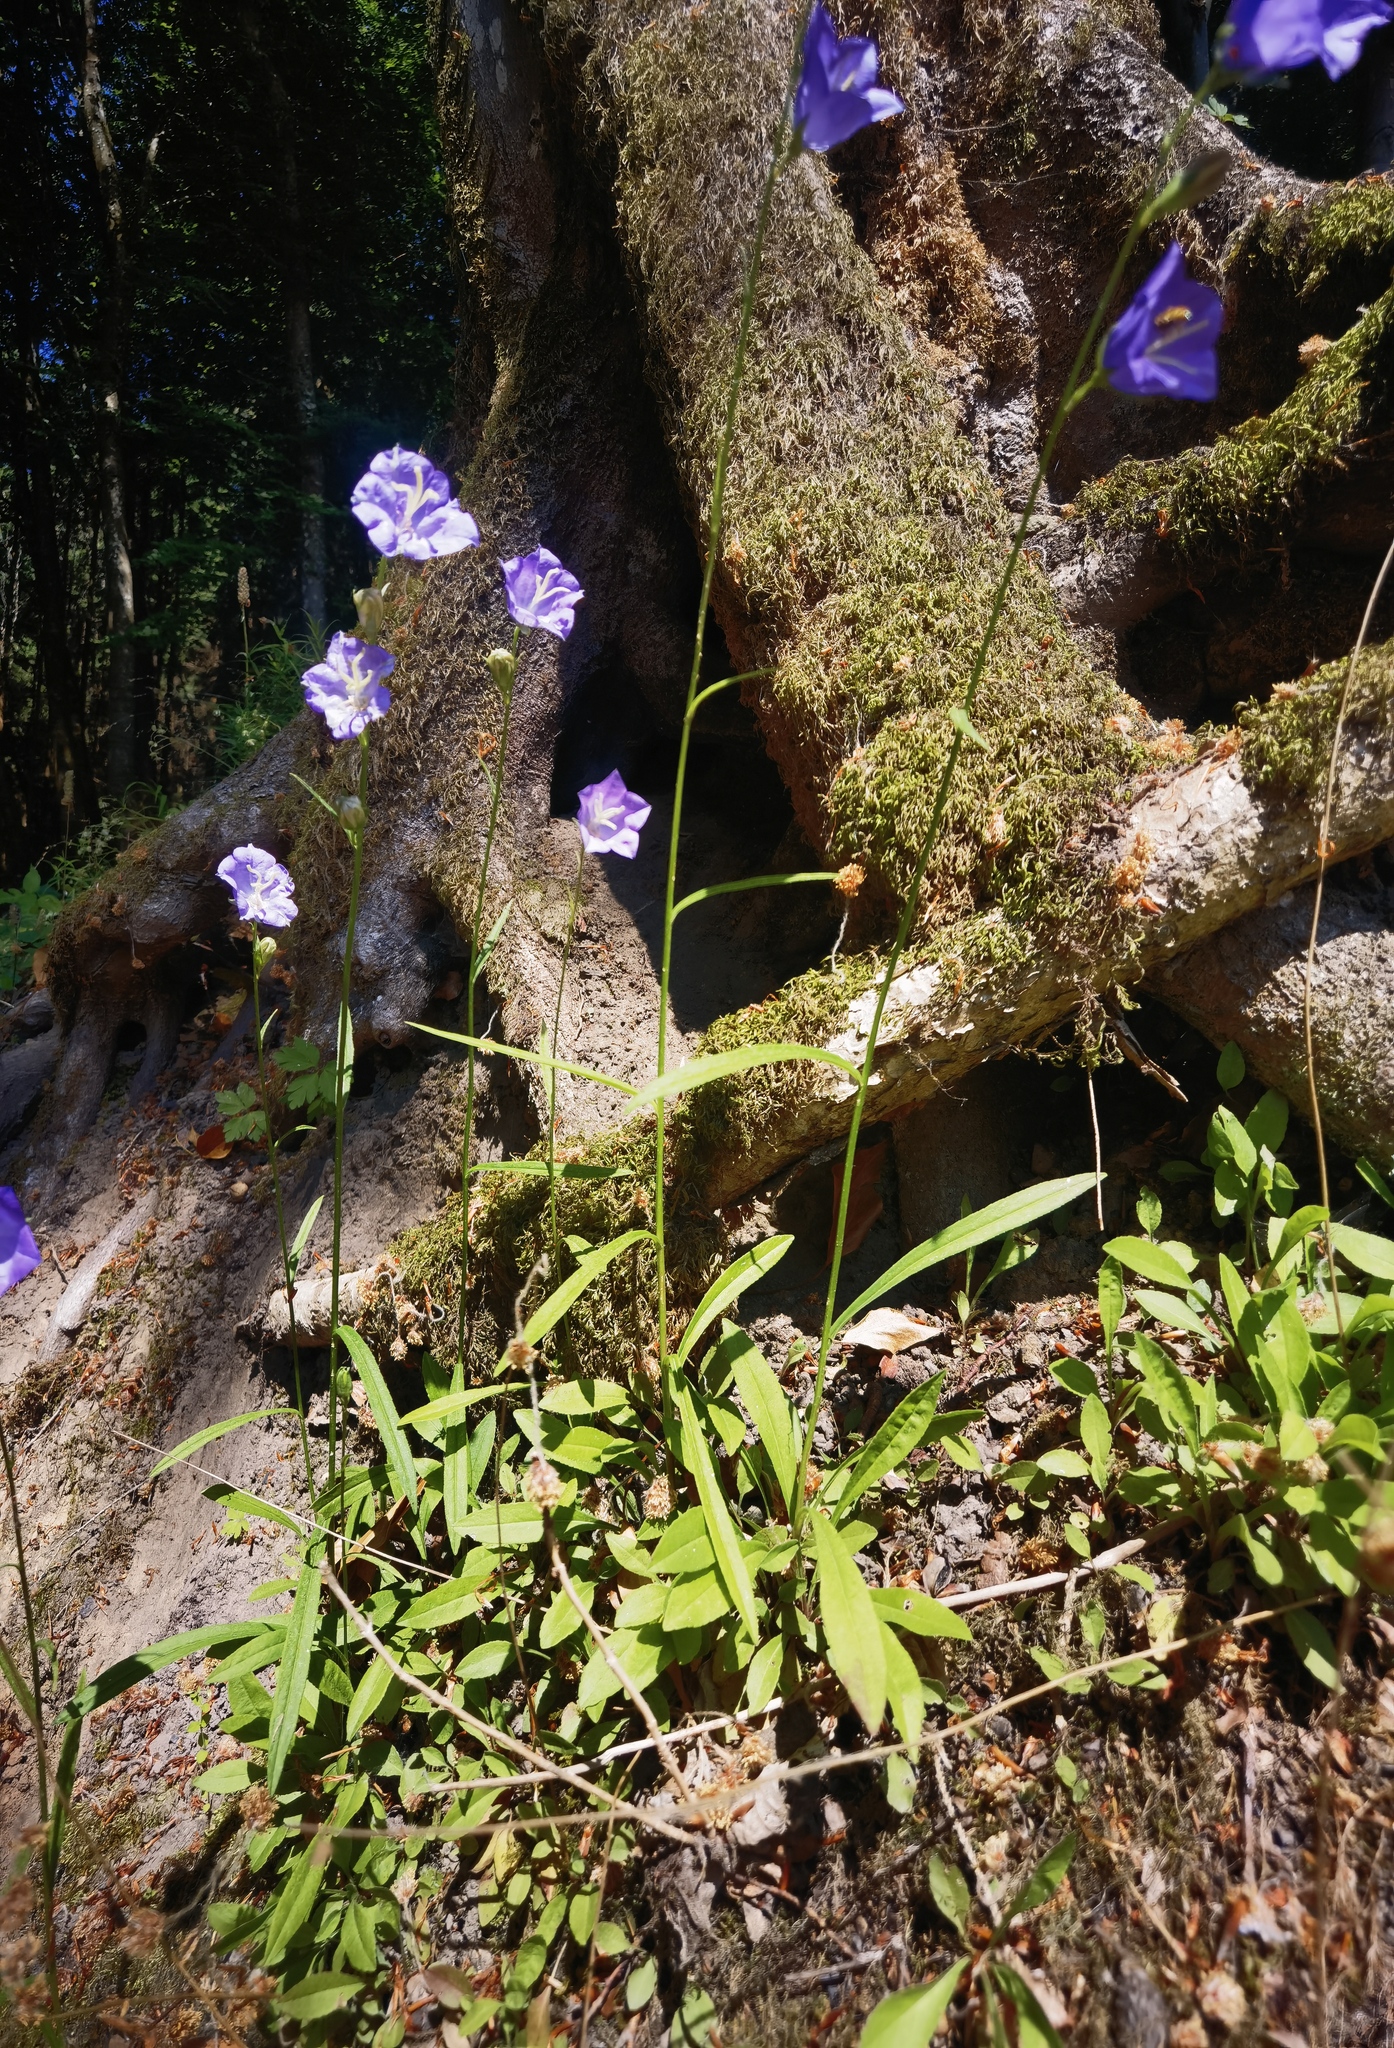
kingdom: Plantae
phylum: Tracheophyta
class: Magnoliopsida
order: Asterales
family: Campanulaceae
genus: Campanula
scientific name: Campanula persicifolia
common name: Peach-leaved bellflower
